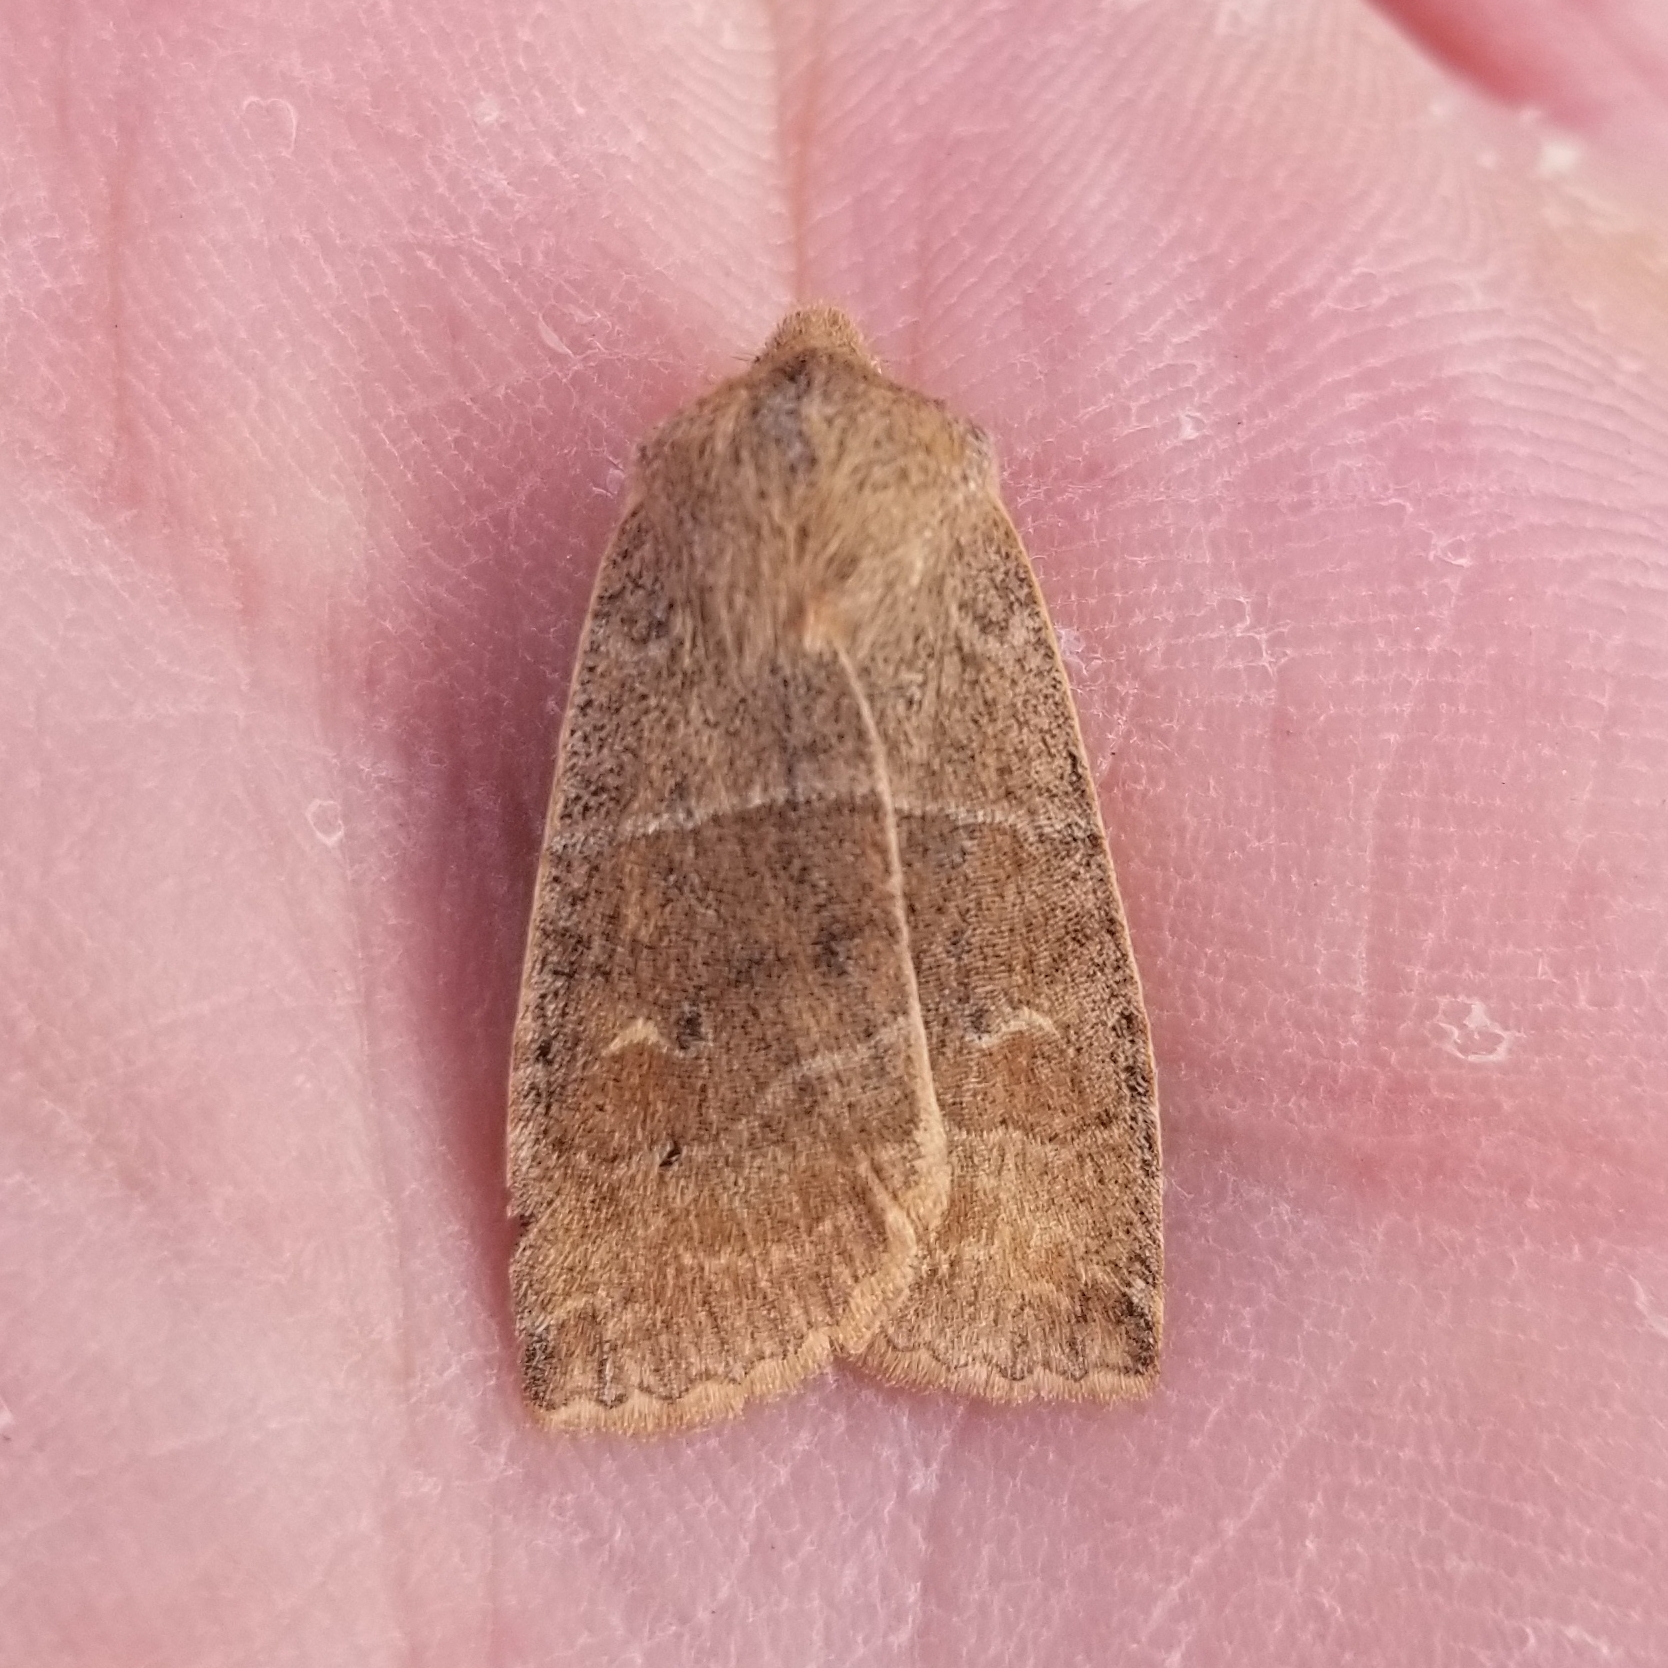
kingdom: Animalia
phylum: Arthropoda
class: Insecta
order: Lepidoptera
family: Noctuidae
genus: Eupsilia
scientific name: Eupsilia morrisoni
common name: Morrison's sallow
